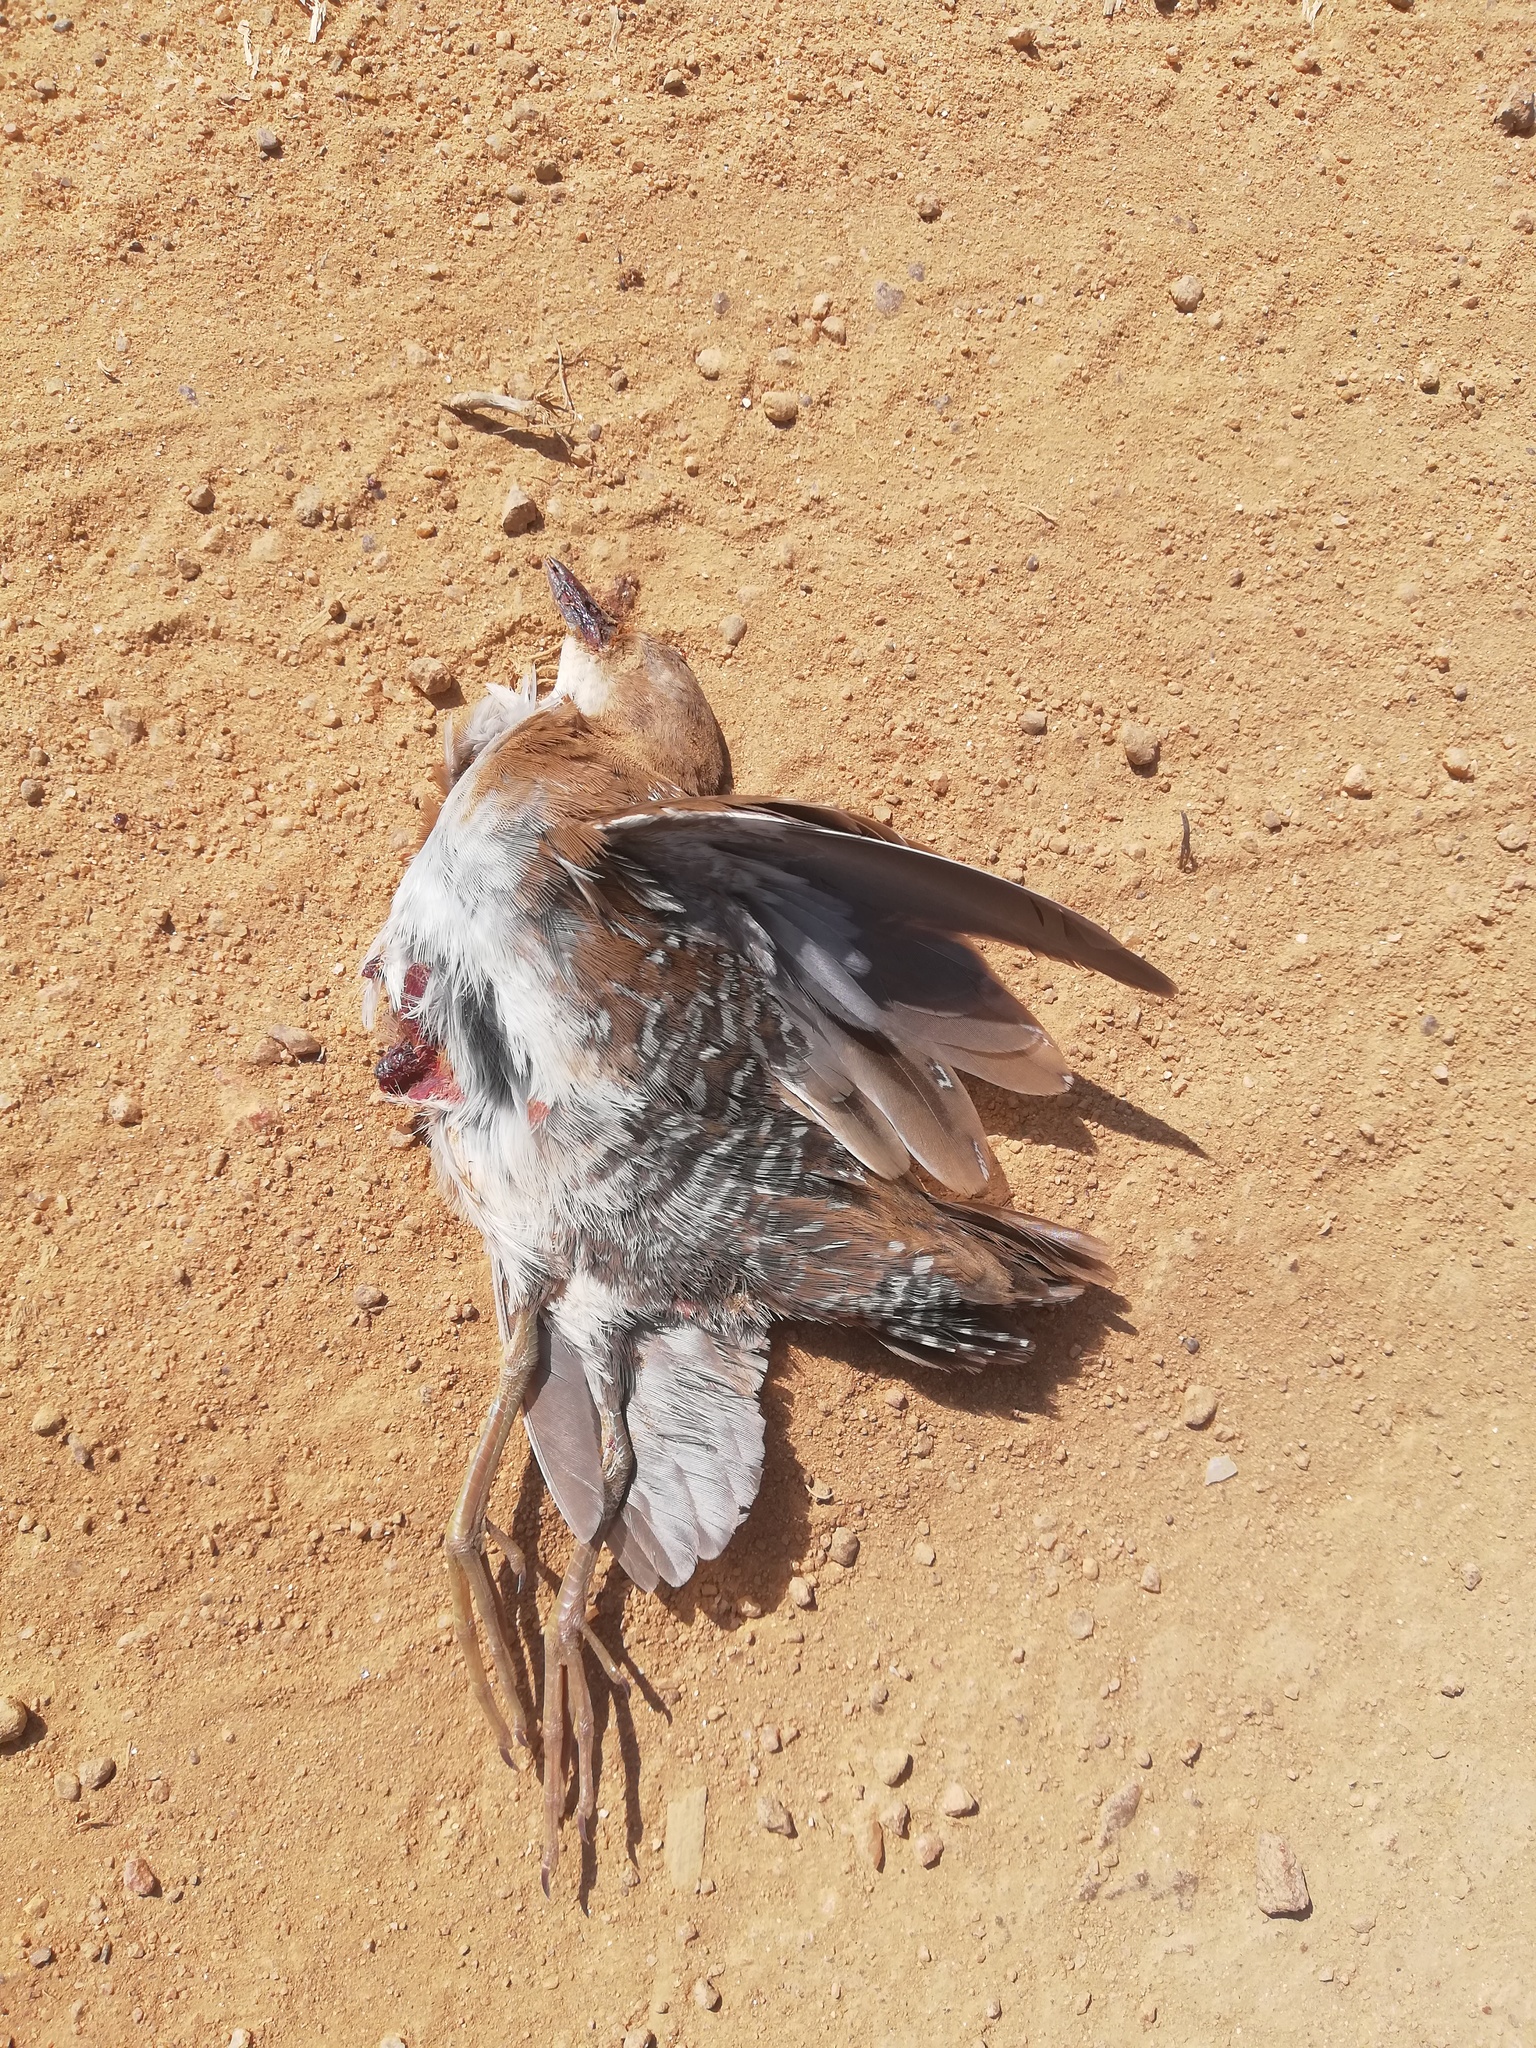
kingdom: Animalia
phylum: Chordata
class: Aves
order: Gruiformes
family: Rallidae
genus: Porzana
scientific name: Porzana pusilla
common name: Baillon's crake
